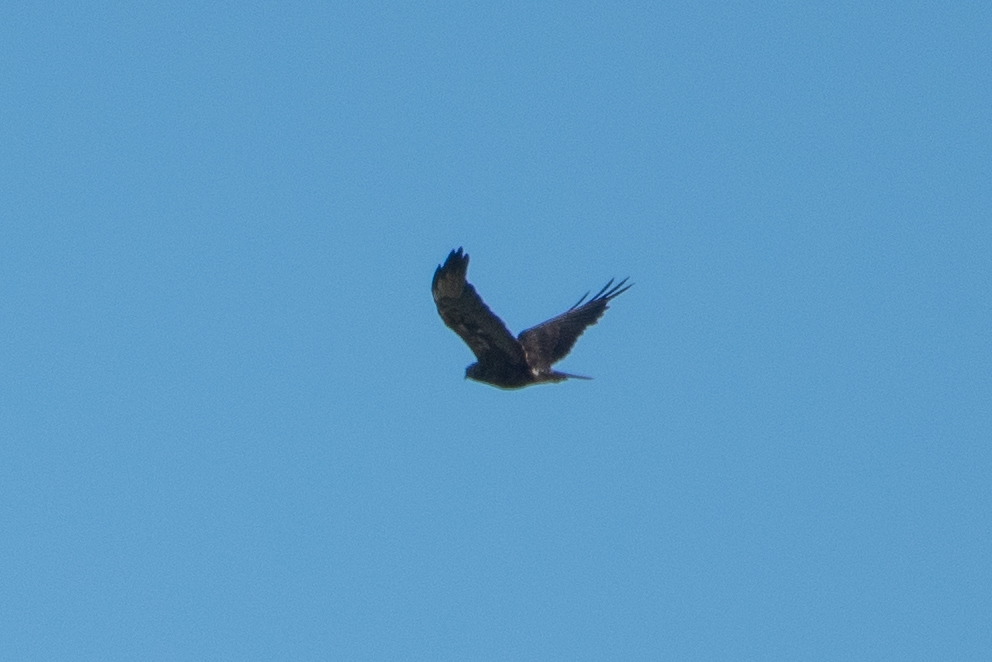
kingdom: Animalia
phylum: Chordata
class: Aves
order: Accipitriformes
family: Accipitridae
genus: Buteo
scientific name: Buteo swainsoni
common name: Swainson's hawk
